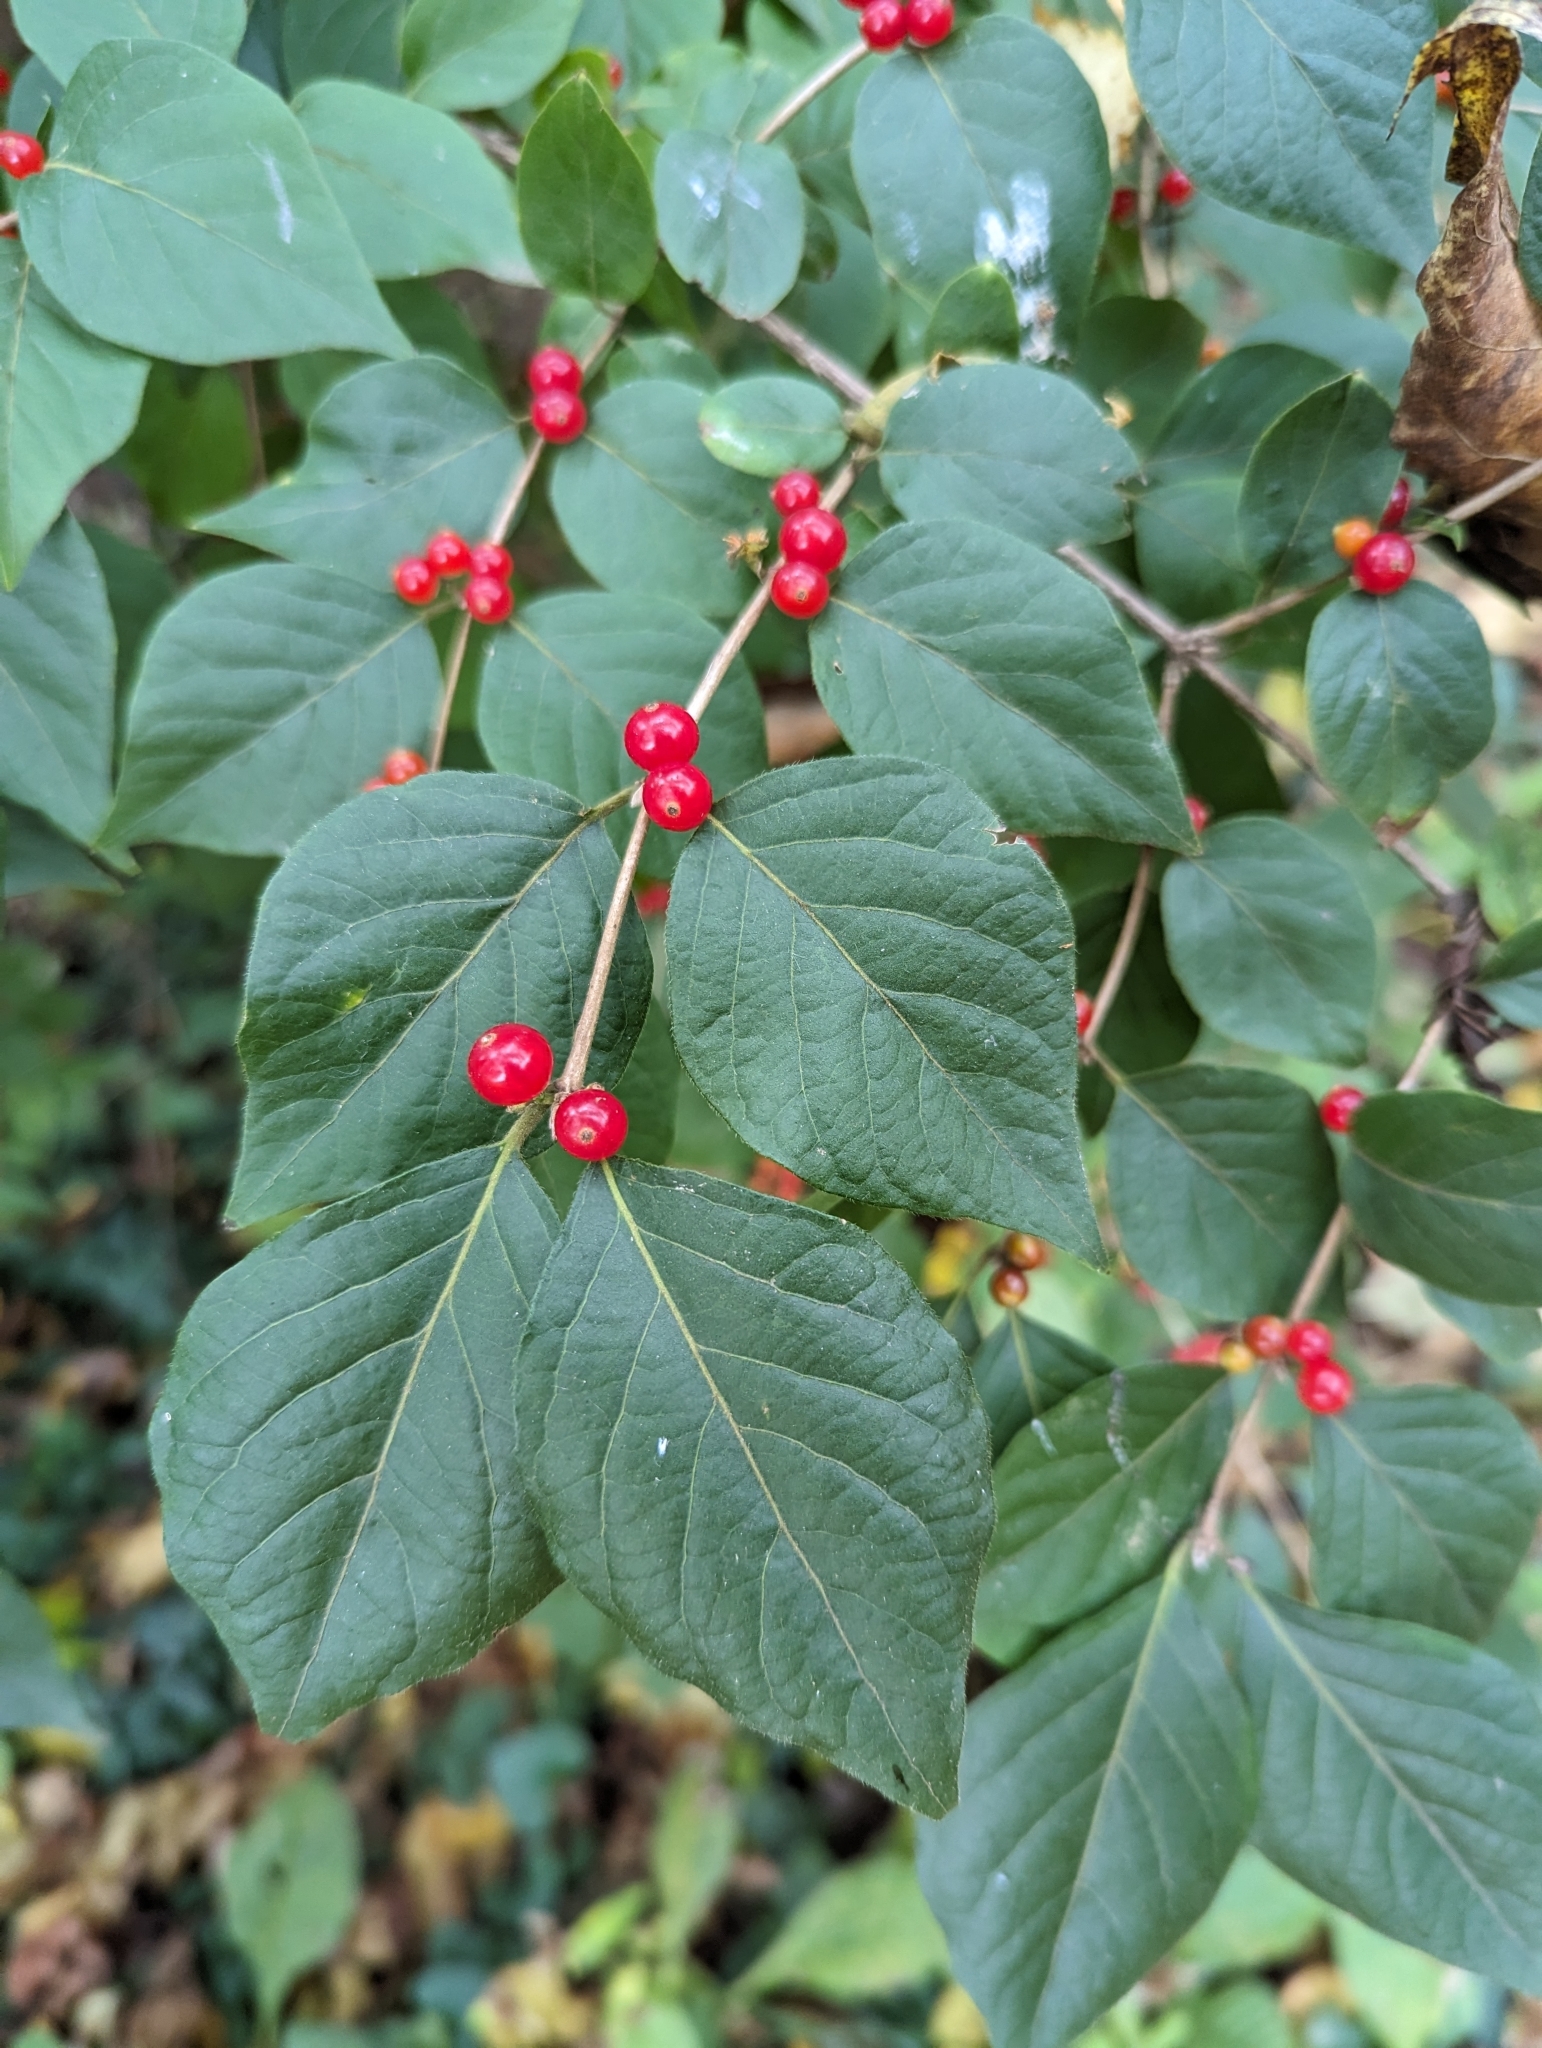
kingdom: Plantae
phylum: Tracheophyta
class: Magnoliopsida
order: Dipsacales
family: Caprifoliaceae
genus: Lonicera
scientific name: Lonicera maackii
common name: Amur honeysuckle
